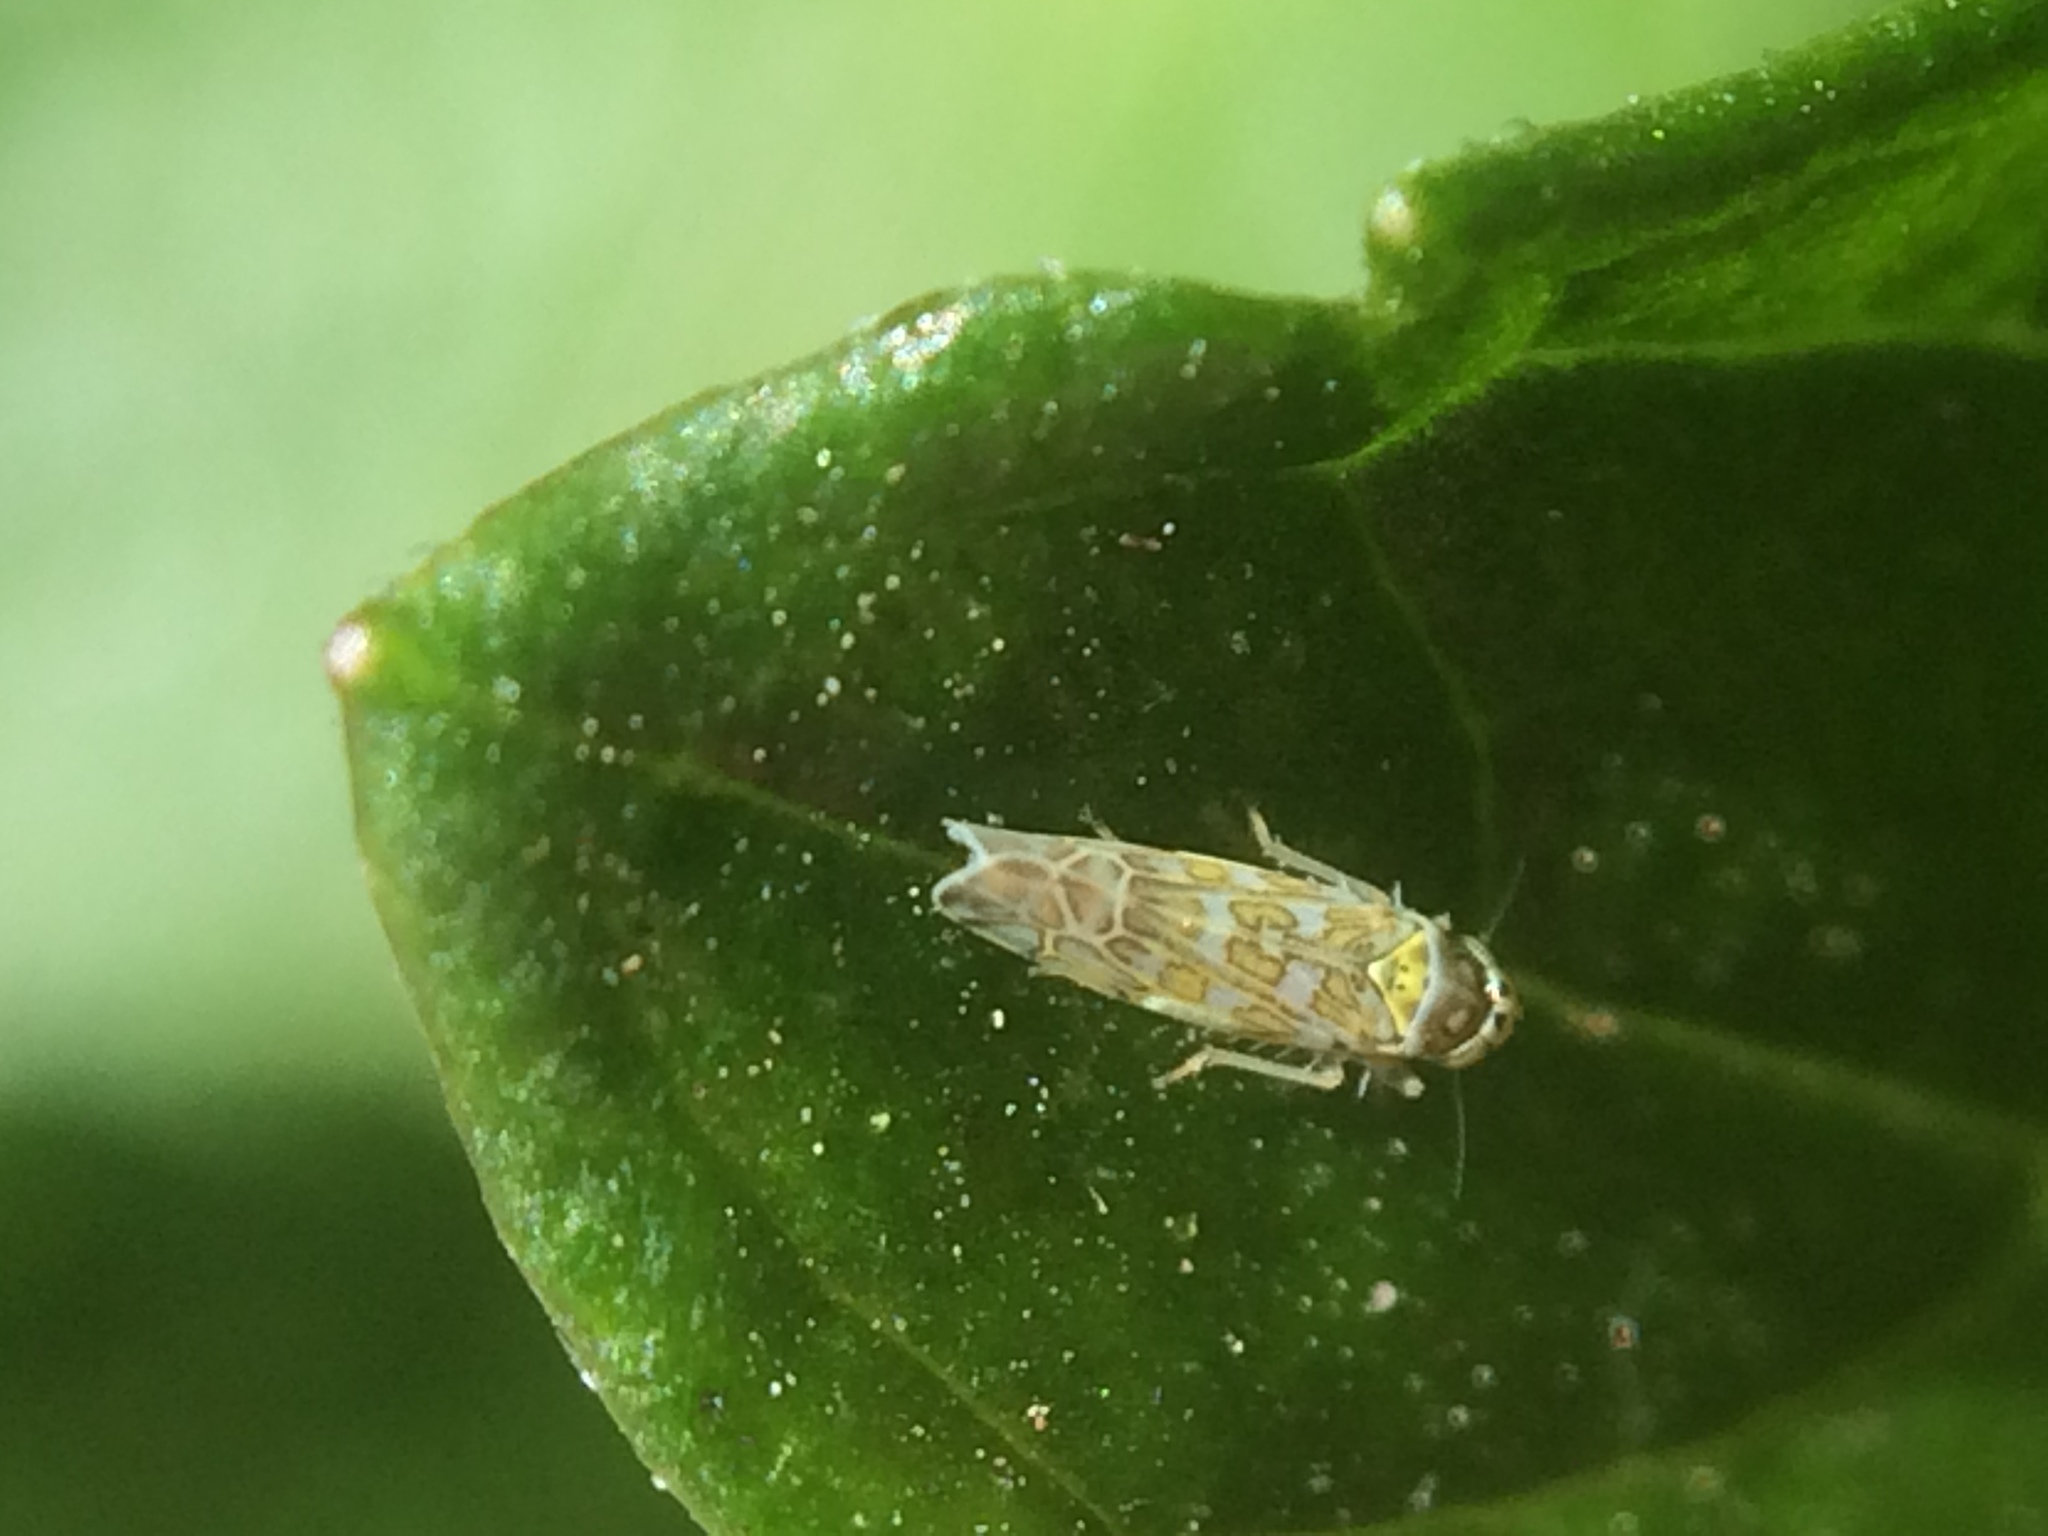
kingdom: Animalia
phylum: Arthropoda
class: Insecta
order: Hemiptera
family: Cicadellidae
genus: Eupteryx
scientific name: Eupteryx decemnotata
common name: Ligurian leafhopper
